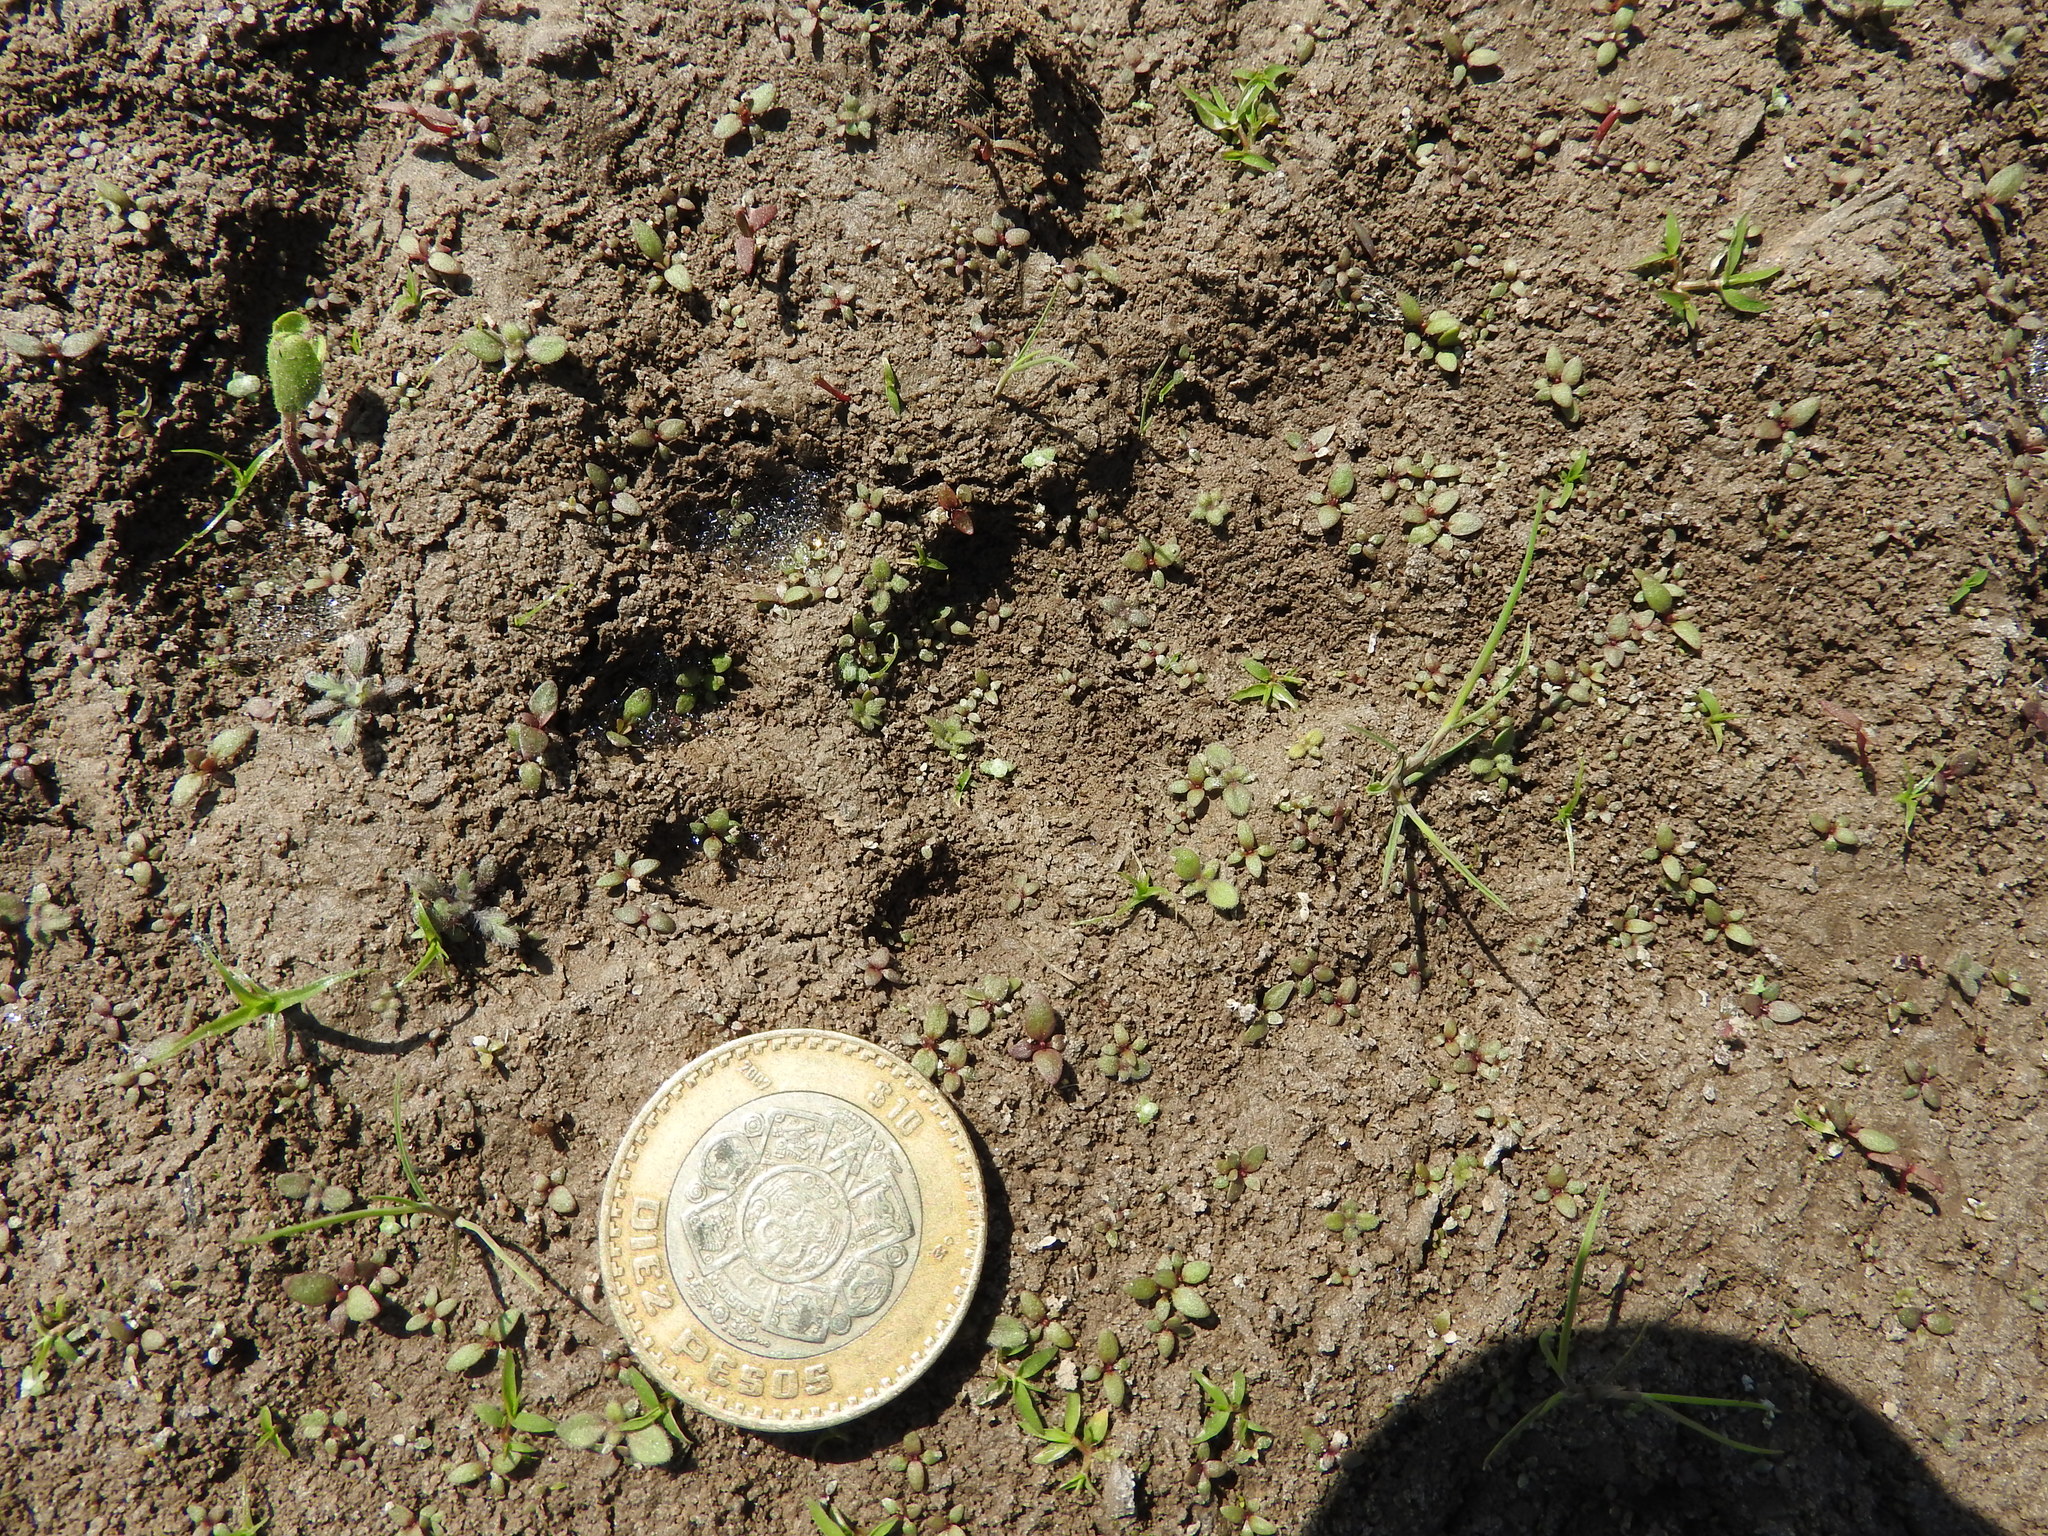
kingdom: Animalia
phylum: Chordata
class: Mammalia
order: Carnivora
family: Felidae
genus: Lynx
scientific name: Lynx rufus
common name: Bobcat
